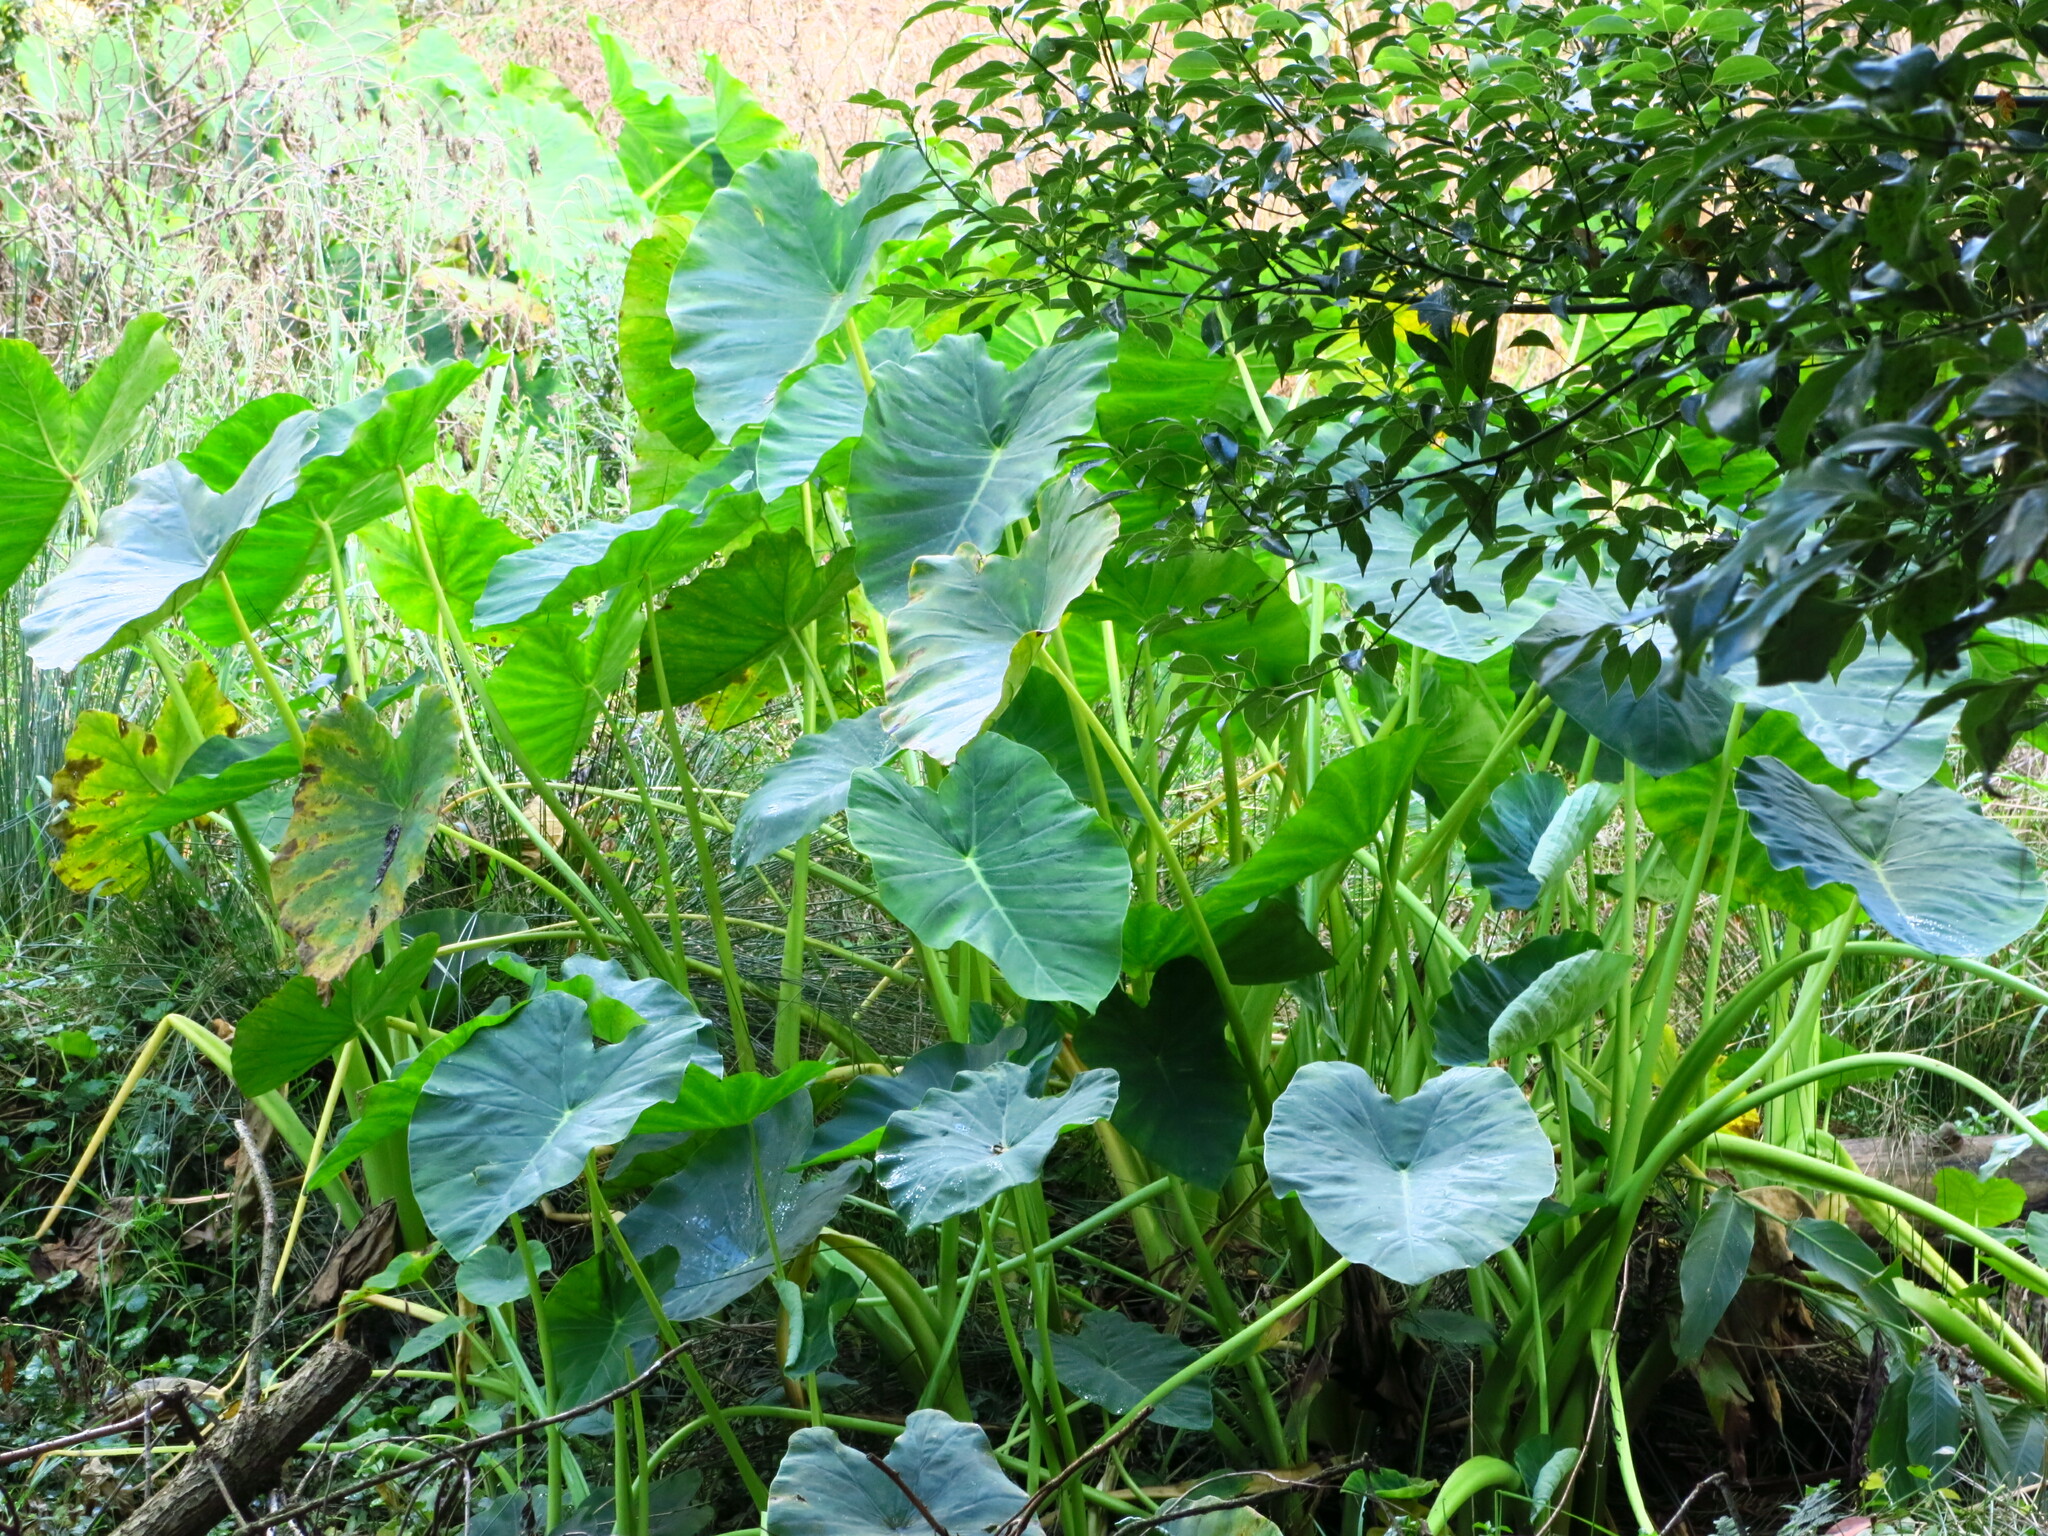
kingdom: Plantae
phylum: Tracheophyta
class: Liliopsida
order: Alismatales
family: Araceae
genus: Colocasia
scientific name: Colocasia esculenta
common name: Taro
